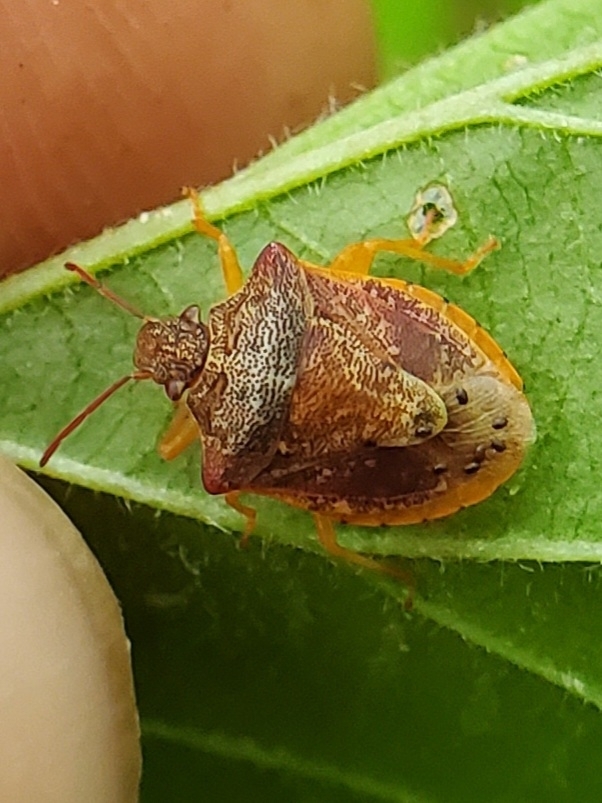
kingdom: Animalia
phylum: Arthropoda
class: Insecta
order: Hemiptera
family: Pentatomidae
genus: Dendrocoris
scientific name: Dendrocoris humeralis
